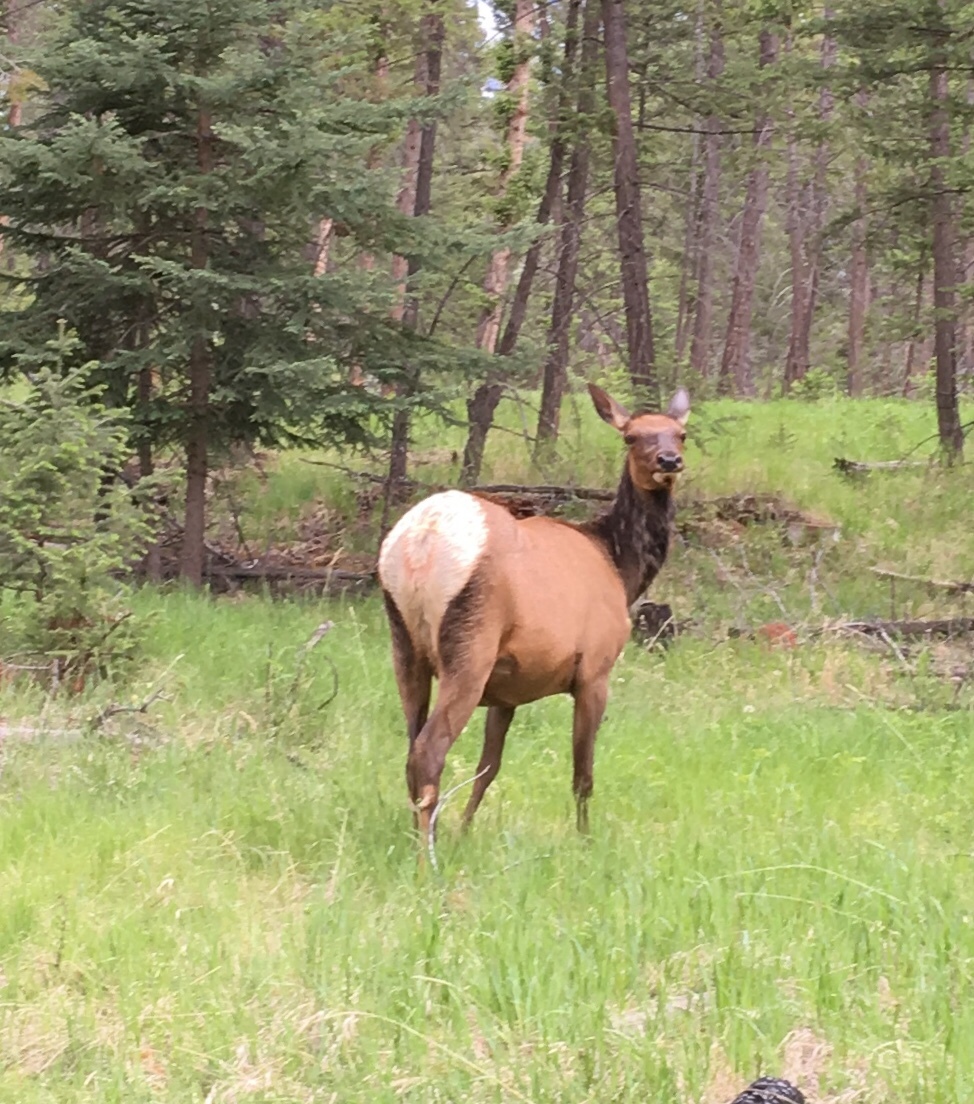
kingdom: Animalia
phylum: Chordata
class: Mammalia
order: Artiodactyla
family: Cervidae
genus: Cervus
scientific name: Cervus elaphus
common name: Red deer
